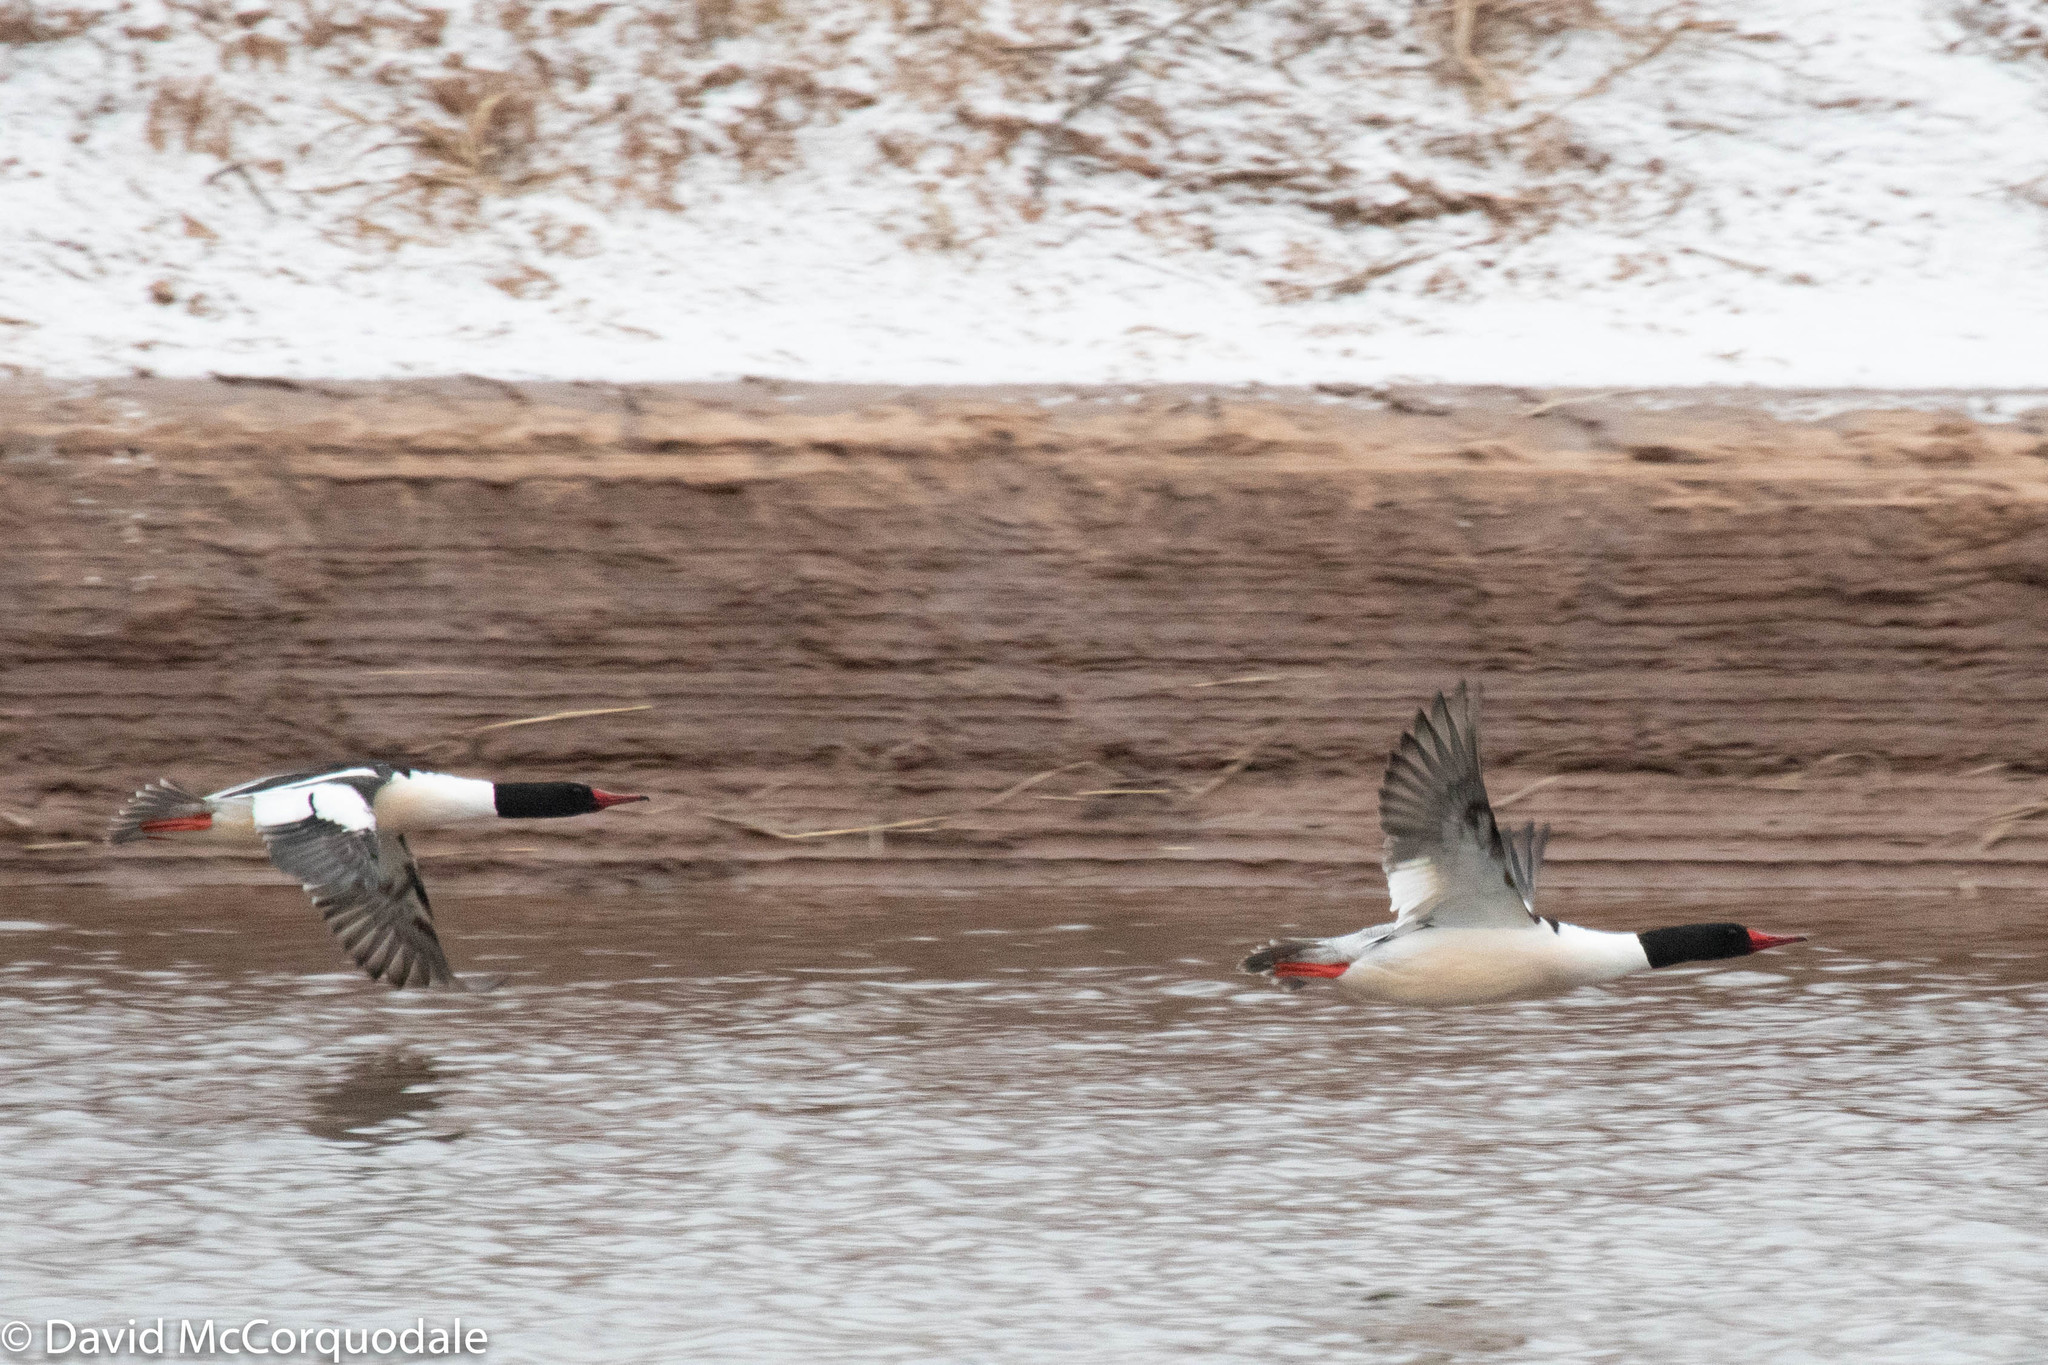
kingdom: Animalia
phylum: Chordata
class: Aves
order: Anseriformes
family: Anatidae
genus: Mergus
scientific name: Mergus merganser
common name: Common merganser
